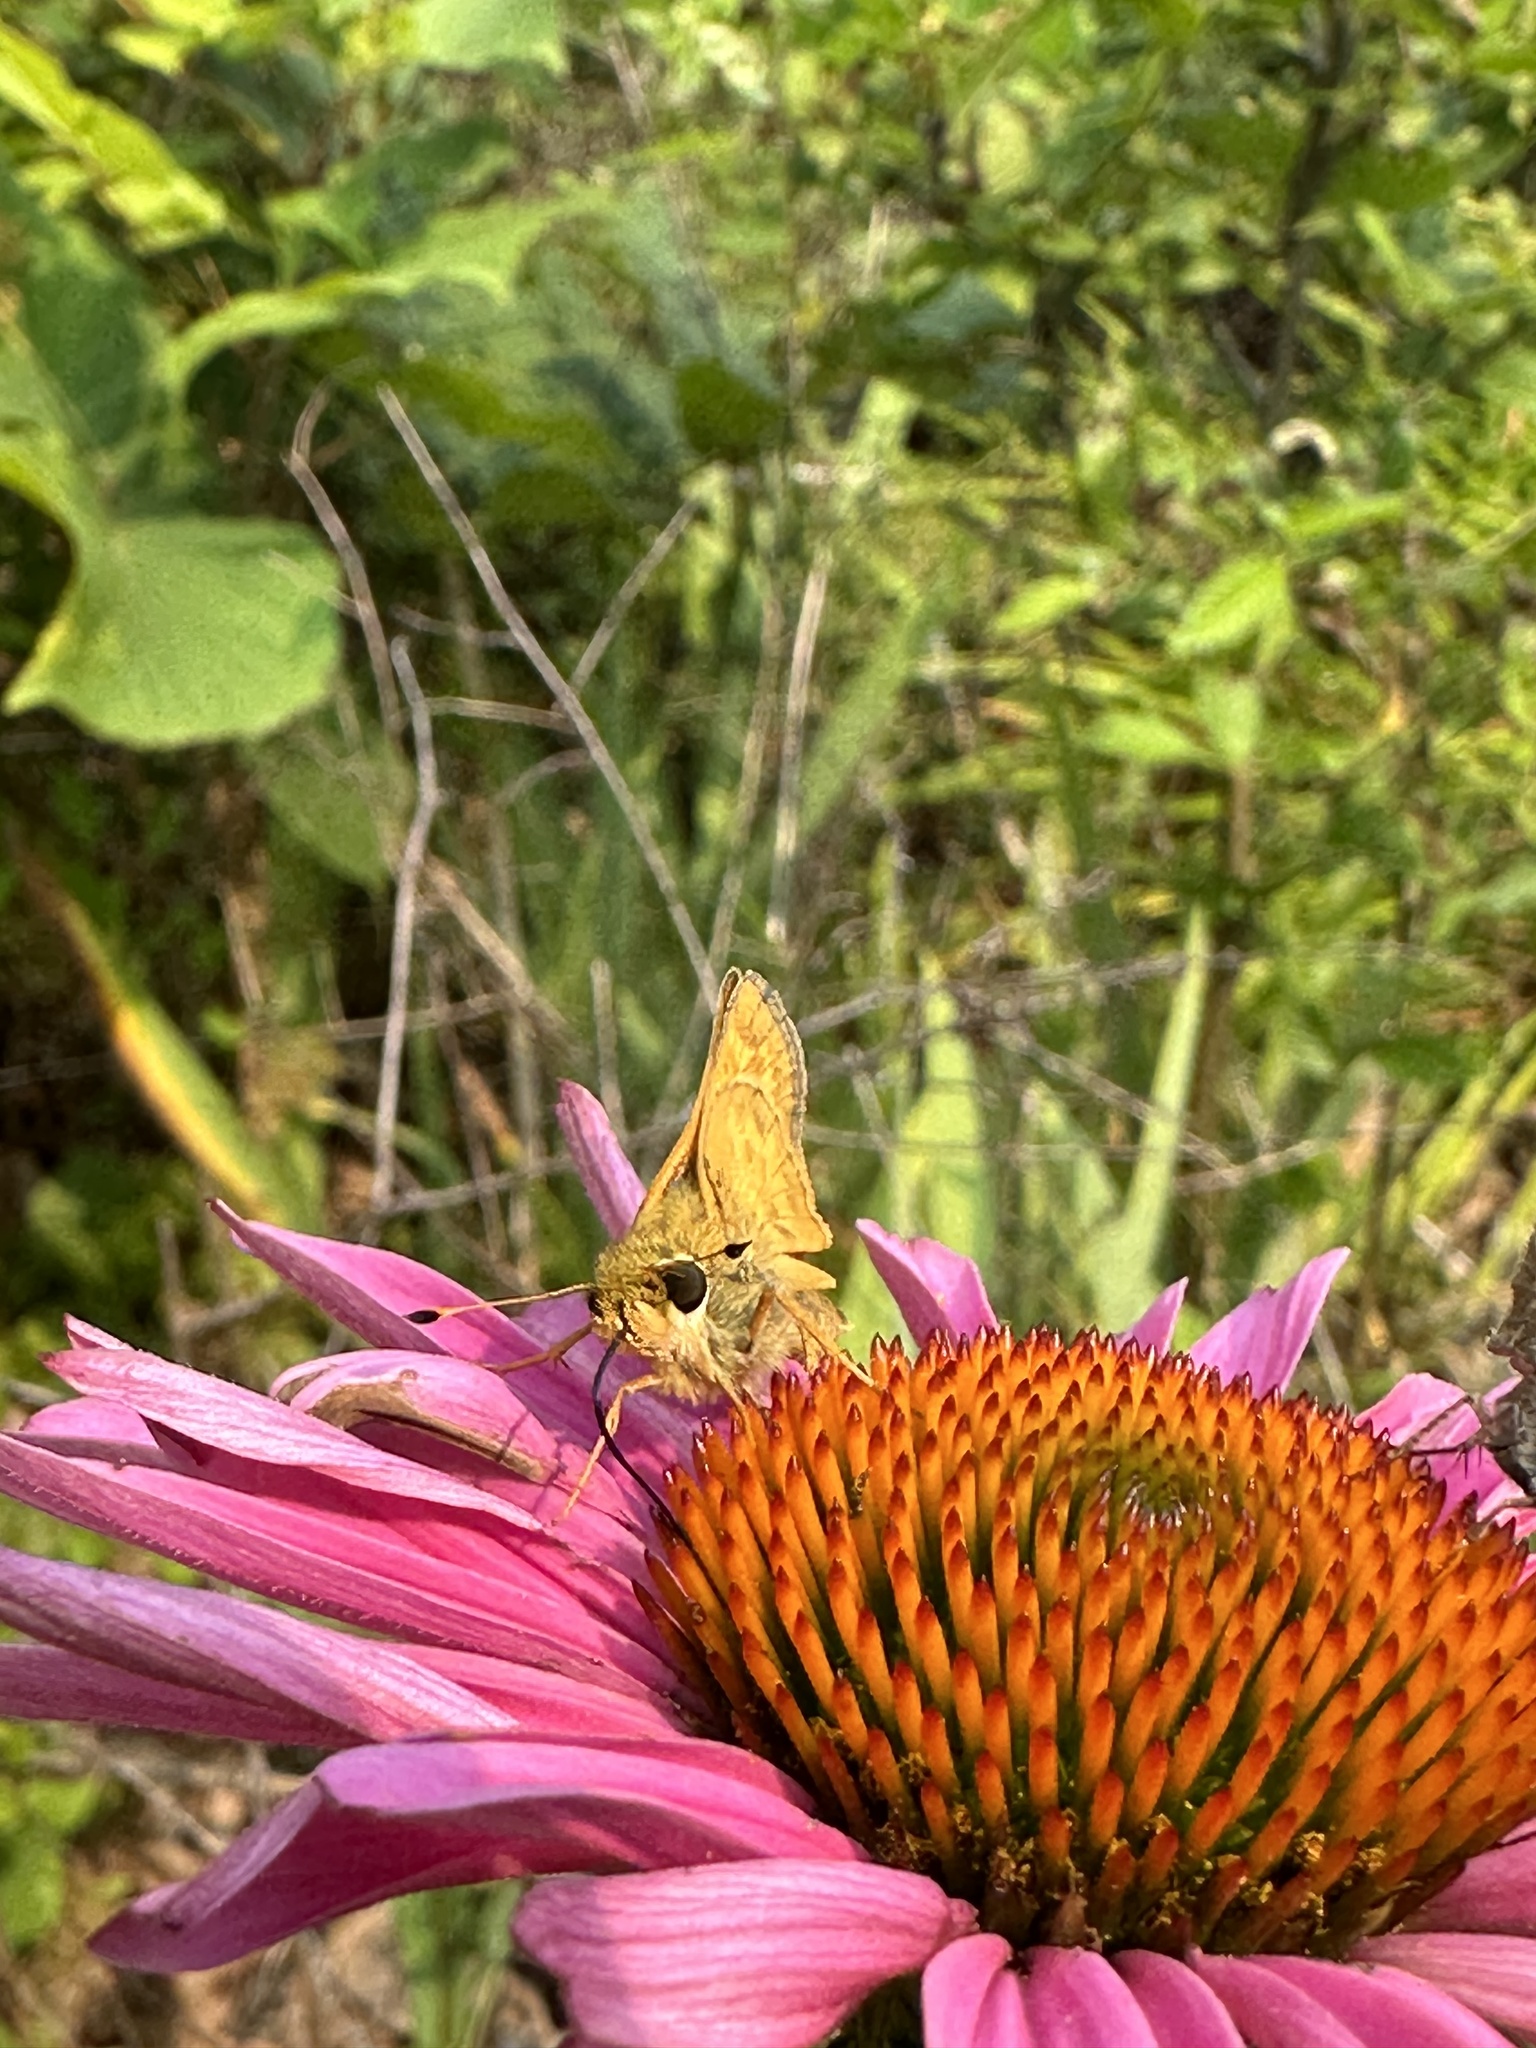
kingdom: Animalia
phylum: Arthropoda
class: Insecta
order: Lepidoptera
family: Hesperiidae
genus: Atalopedes
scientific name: Atalopedes
